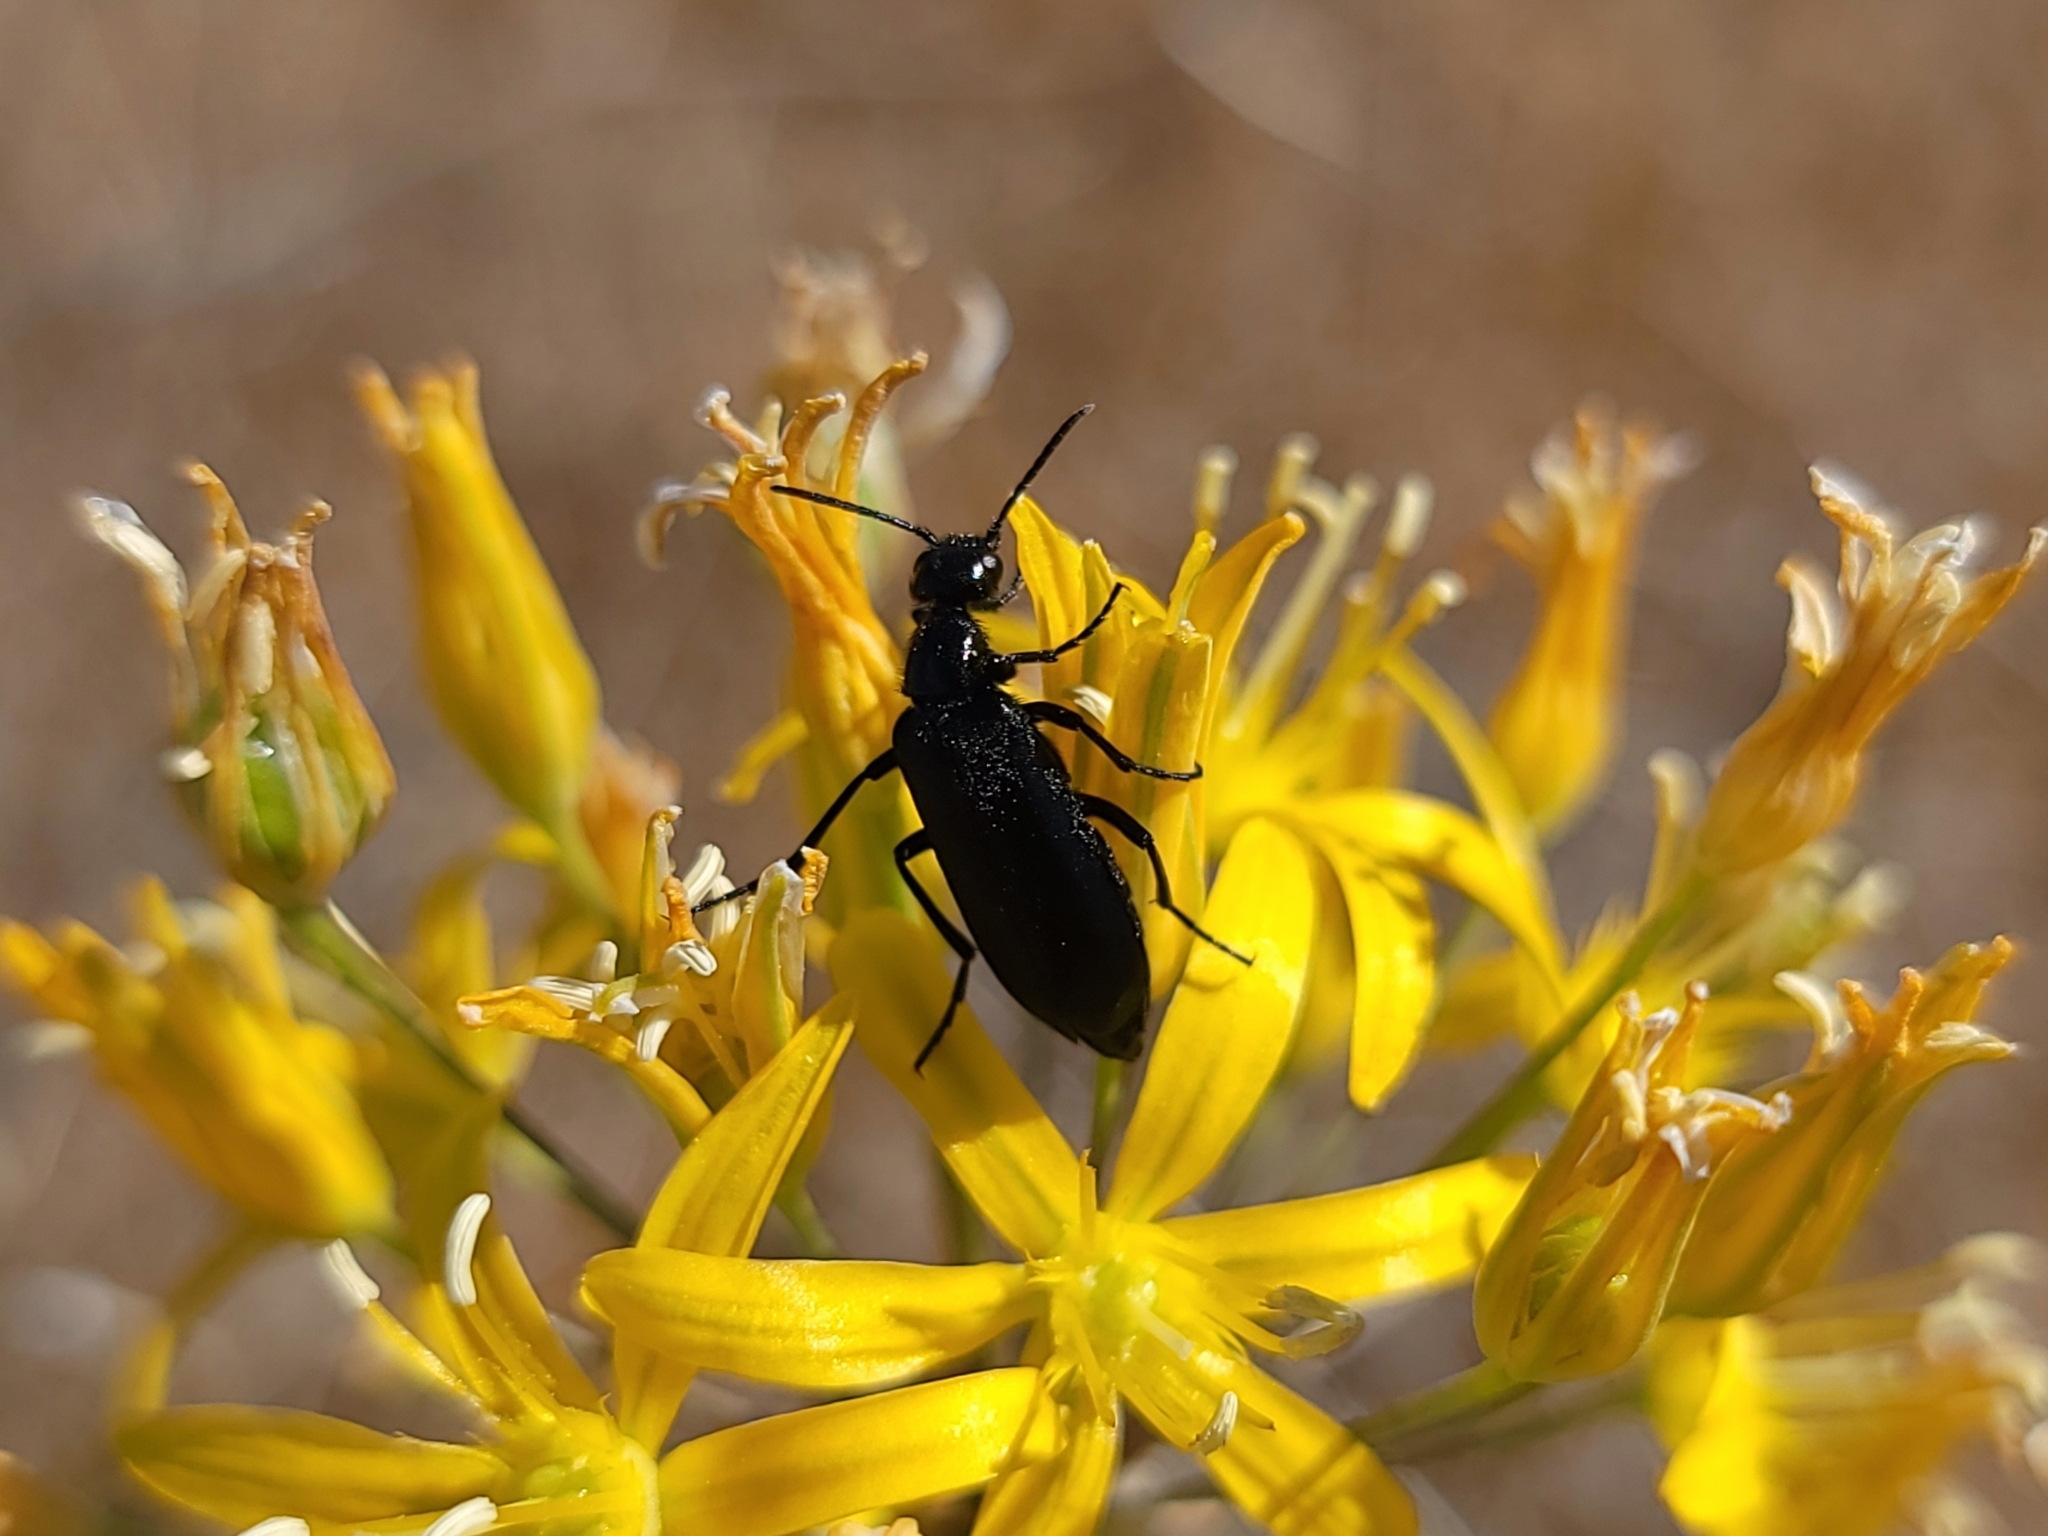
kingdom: Animalia
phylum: Arthropoda
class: Insecta
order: Coleoptera
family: Meloidae
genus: Epicauta
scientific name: Epicauta puncticollis
